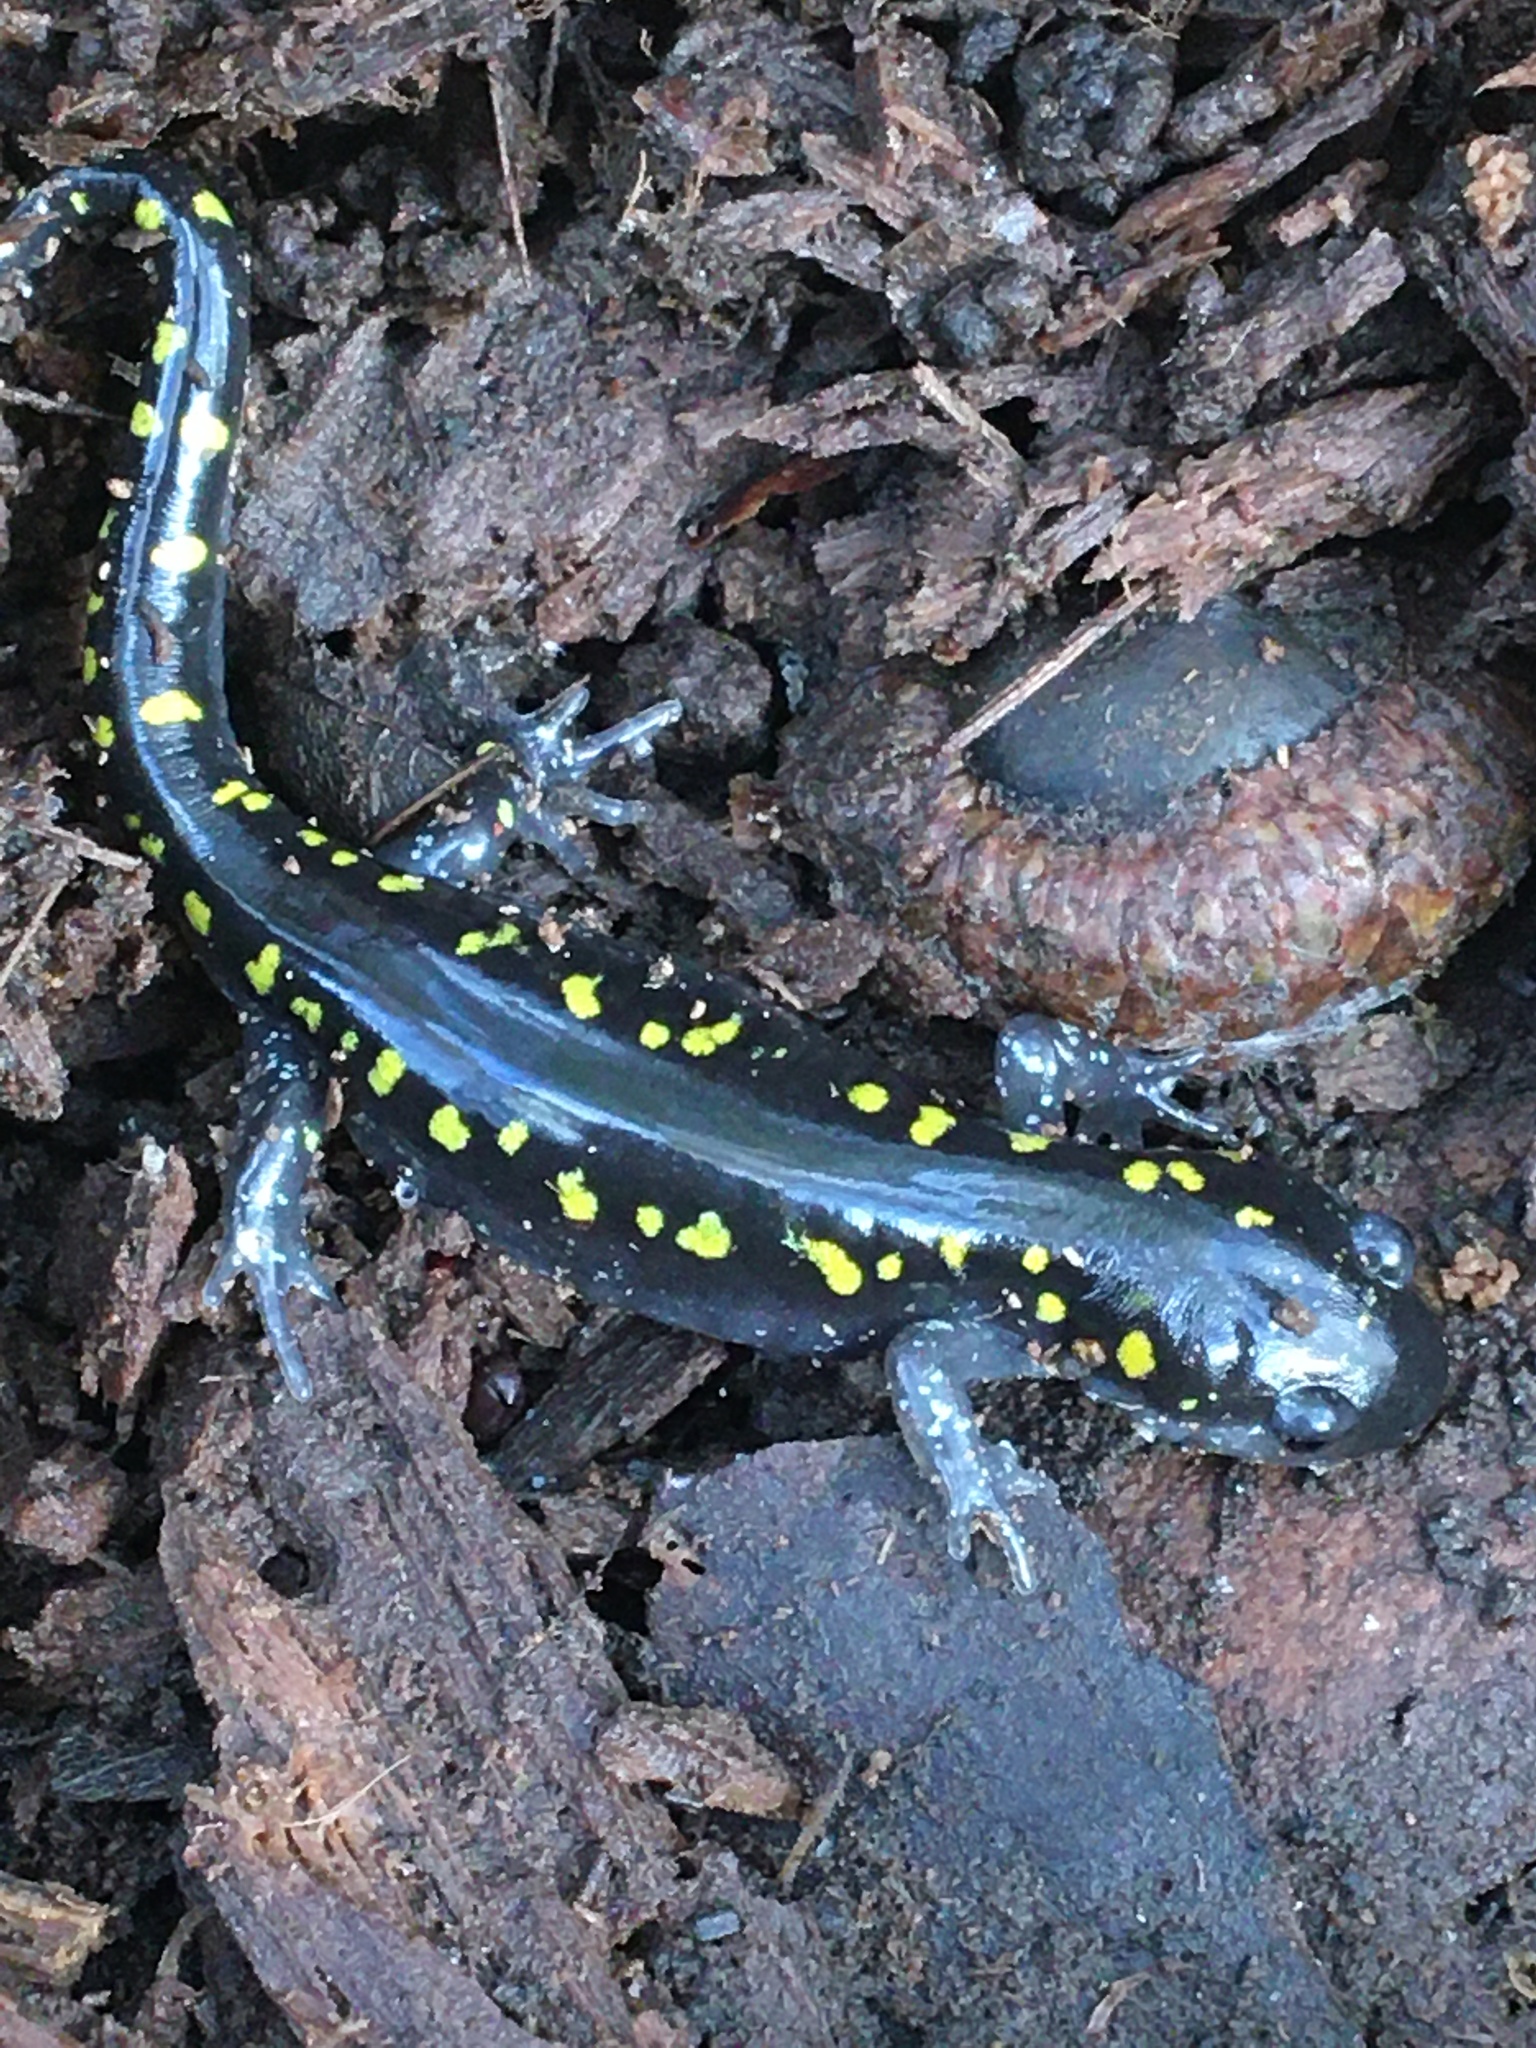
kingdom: Animalia
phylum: Chordata
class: Amphibia
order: Caudata
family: Ambystomatidae
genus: Ambystoma
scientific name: Ambystoma maculatum
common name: Spotted salamander
